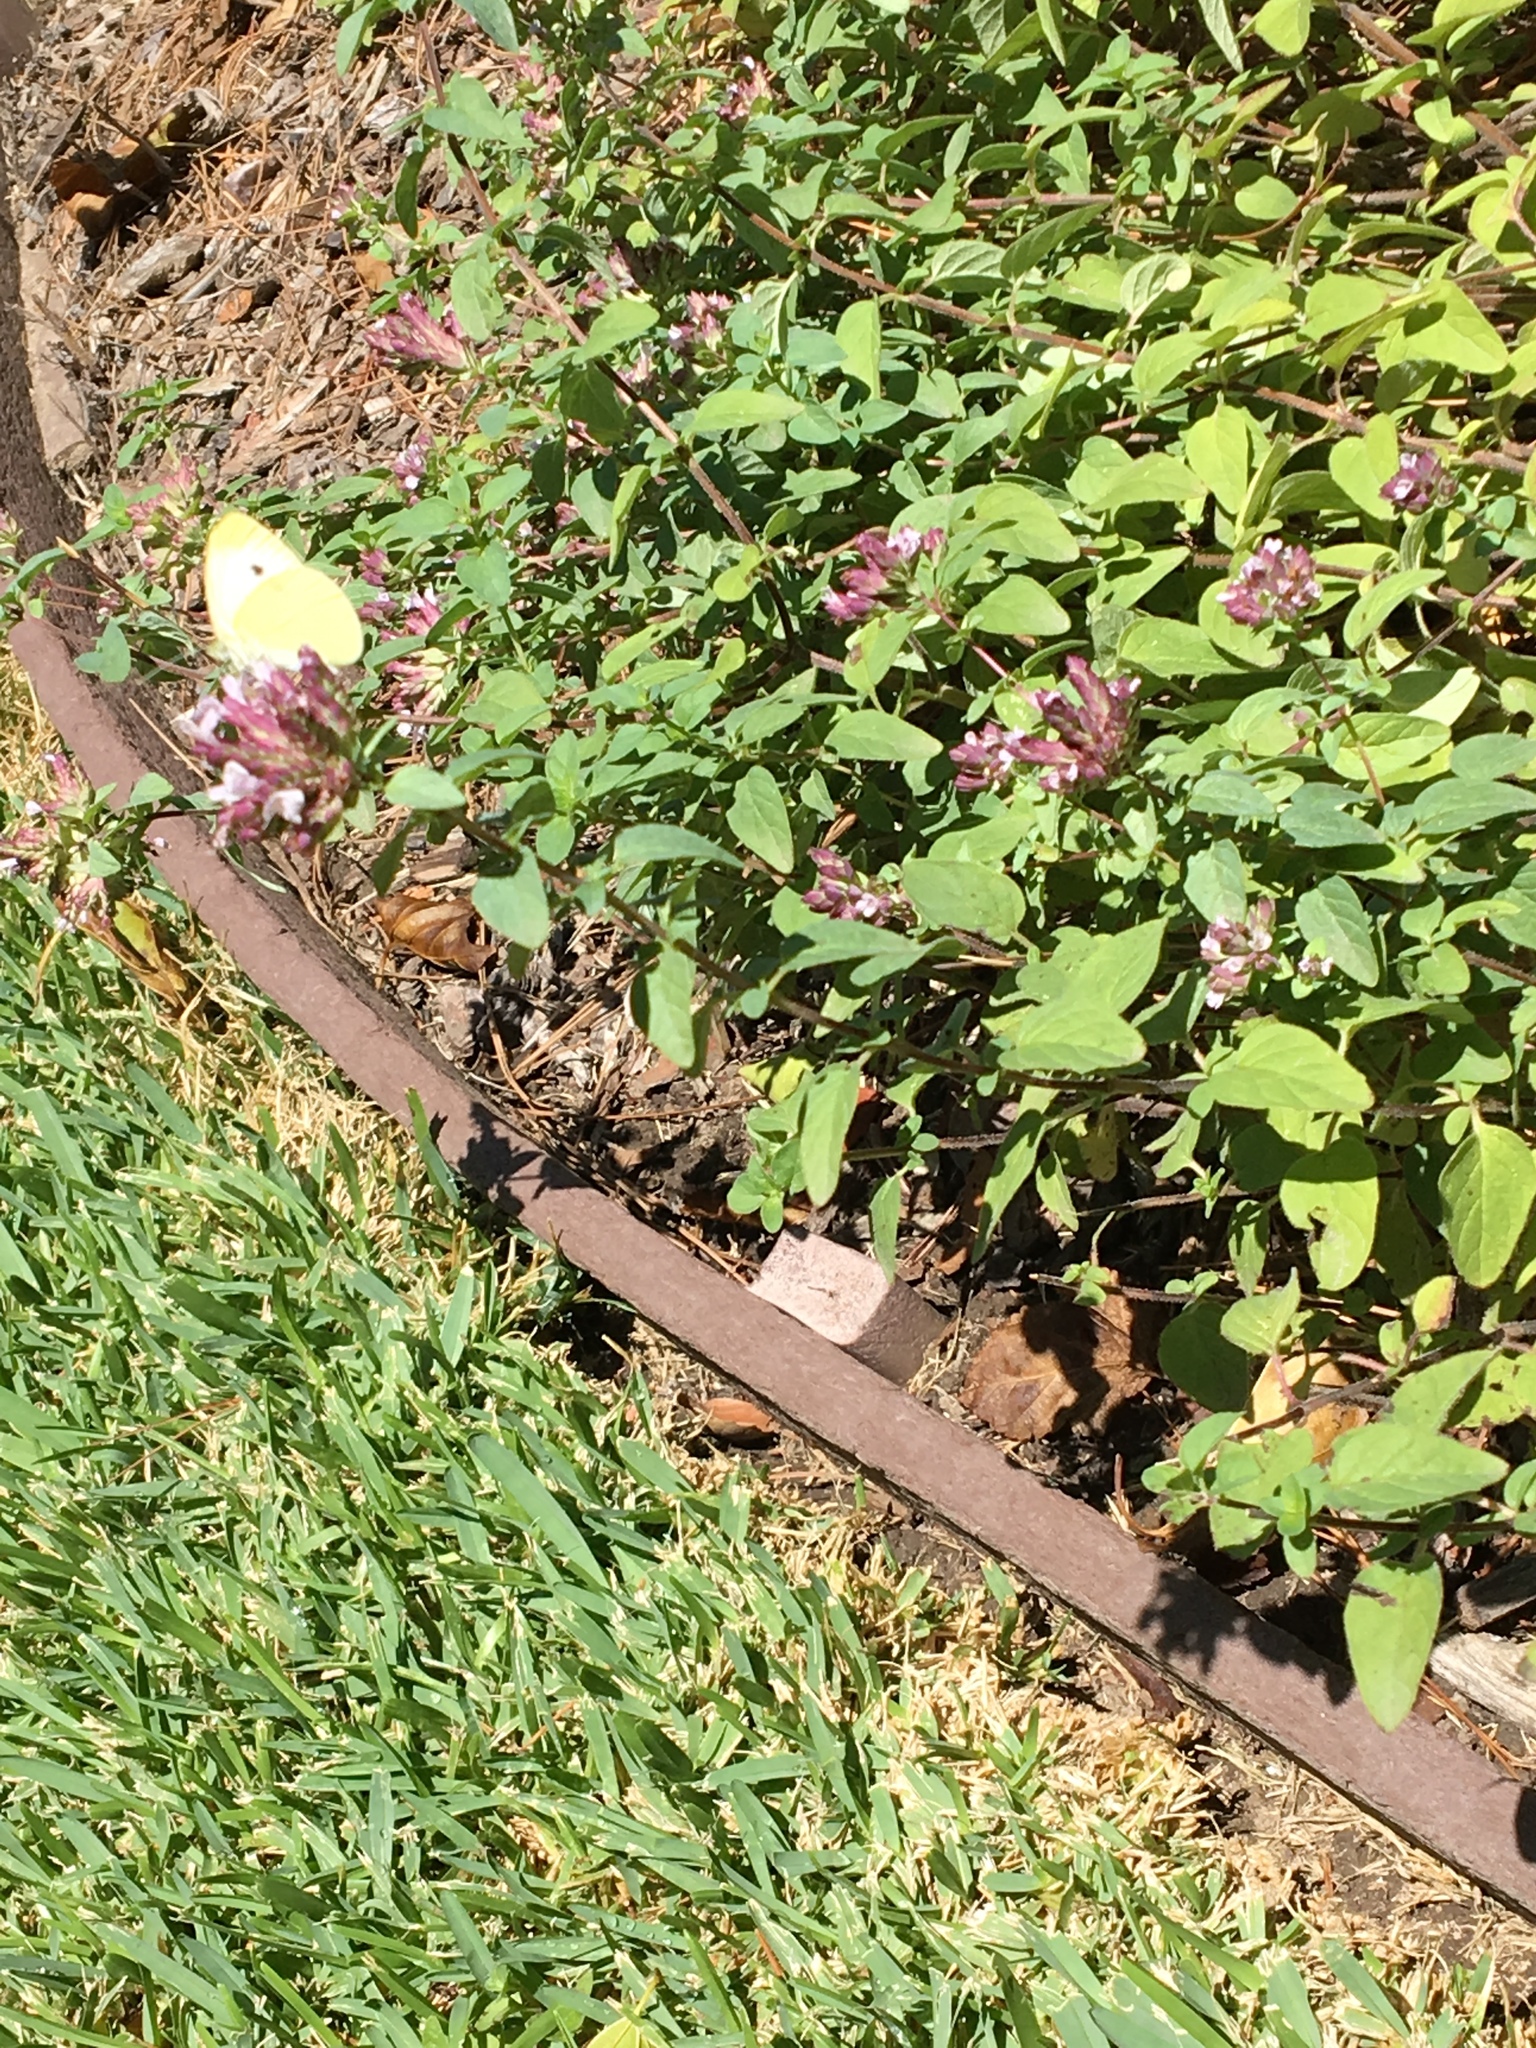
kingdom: Animalia
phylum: Arthropoda
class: Insecta
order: Lepidoptera
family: Pieridae
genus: Pieris
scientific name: Pieris rapae
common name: Small white
